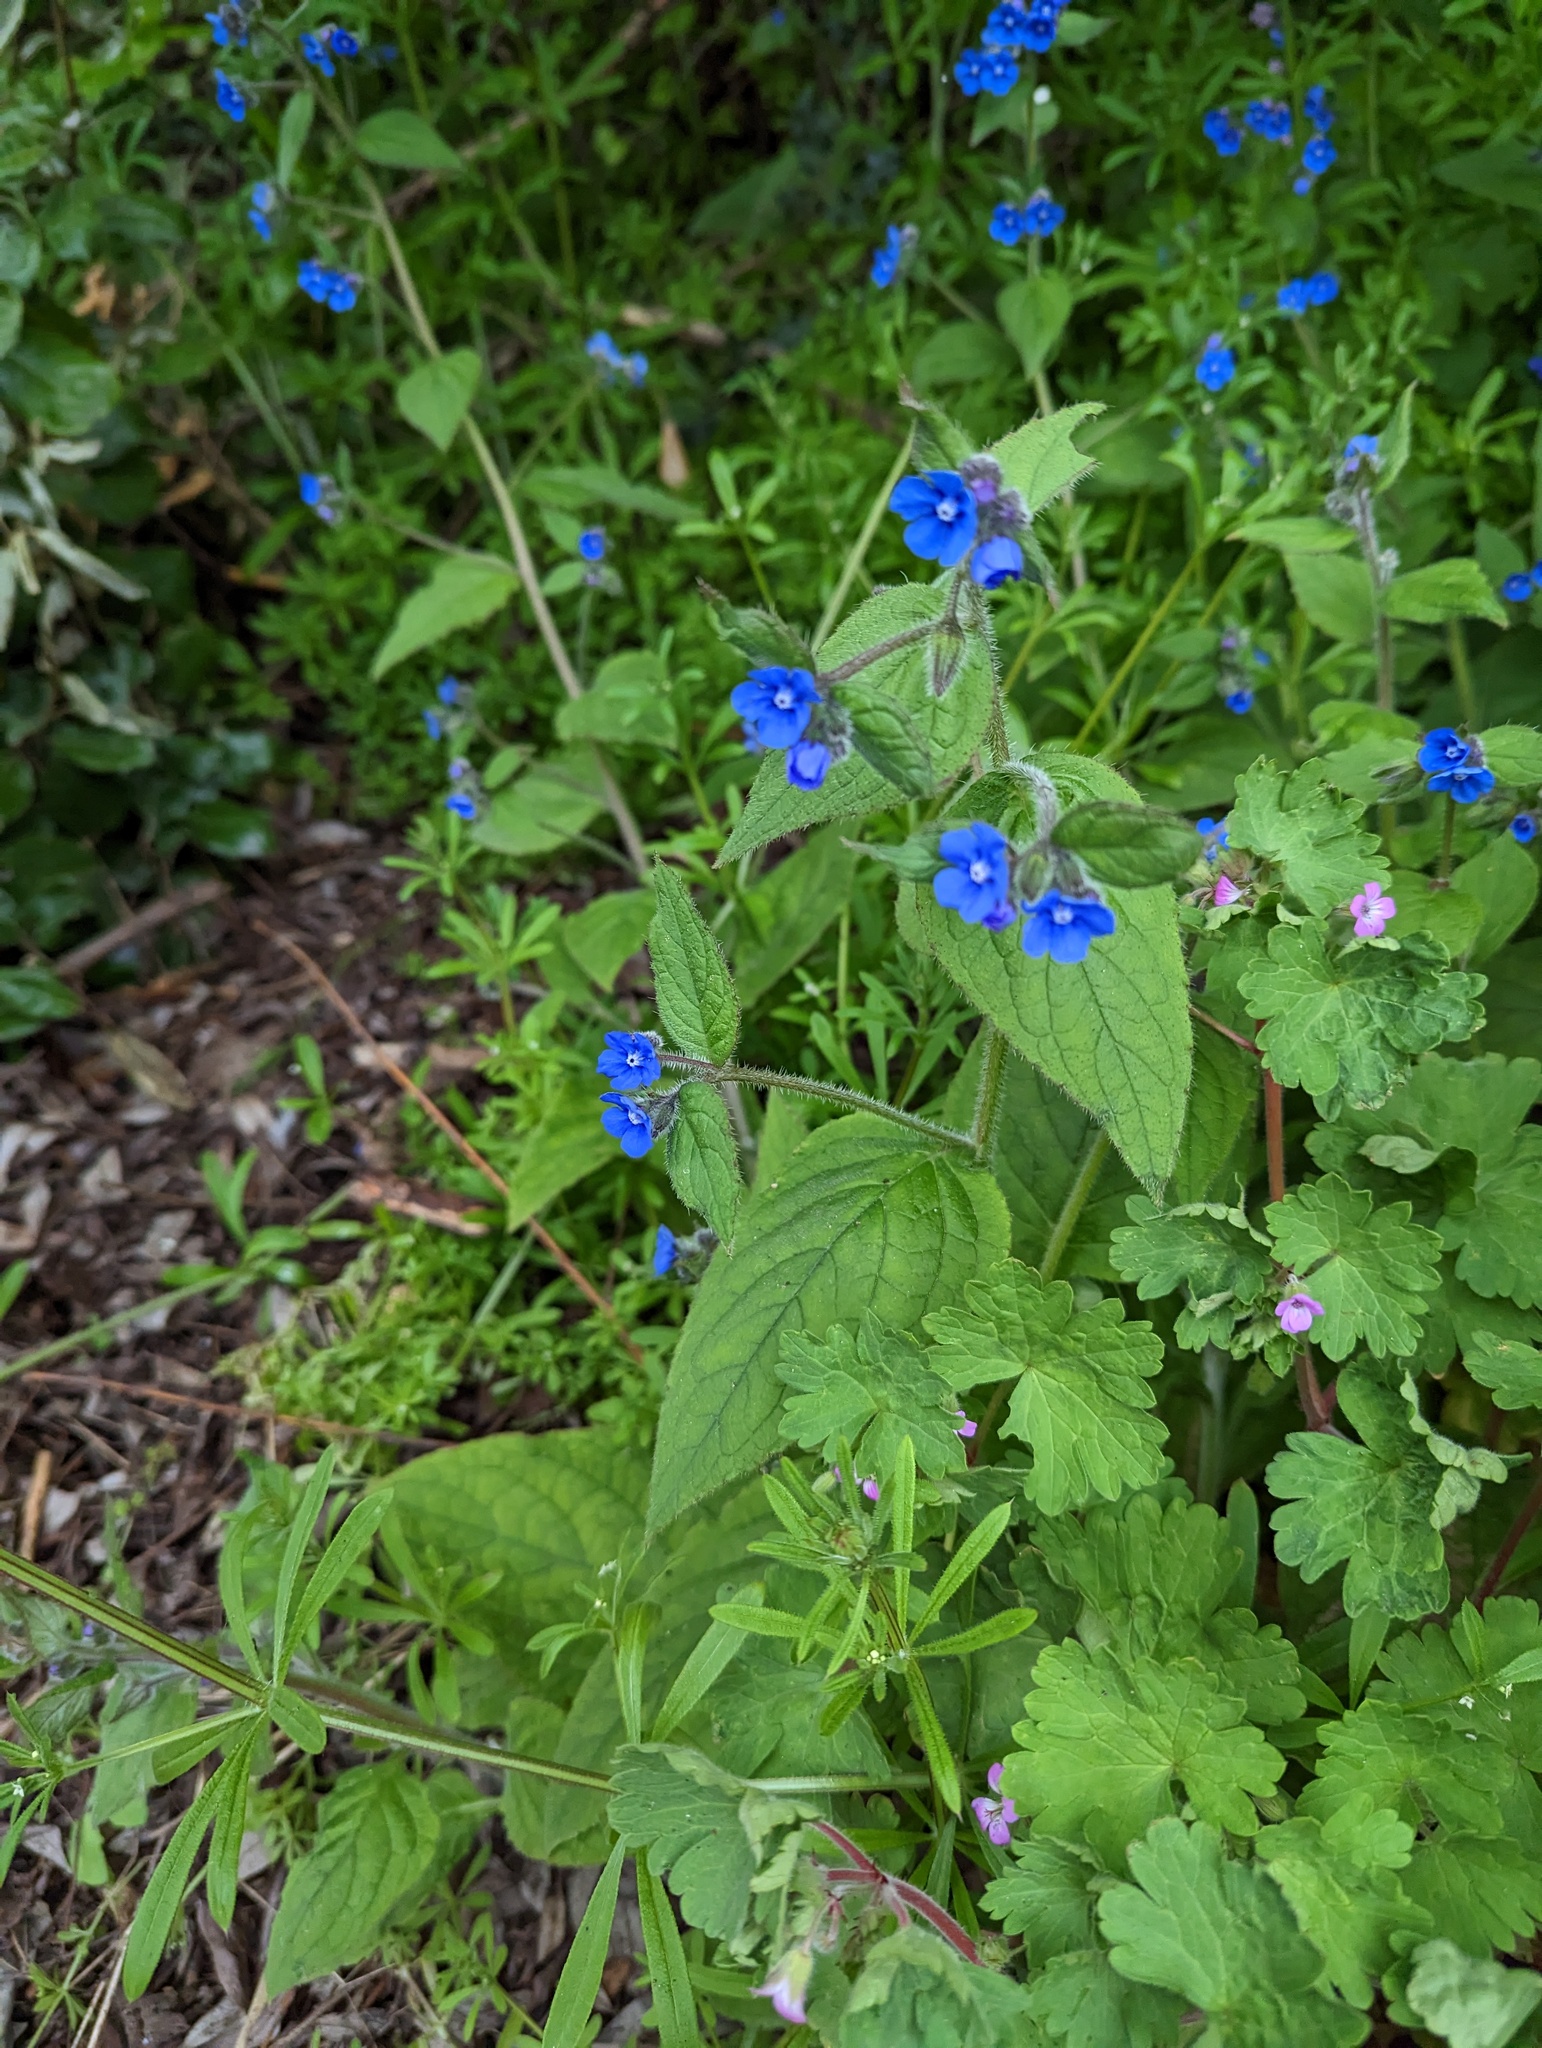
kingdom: Plantae
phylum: Tracheophyta
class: Magnoliopsida
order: Boraginales
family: Boraginaceae
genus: Pentaglottis
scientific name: Pentaglottis sempervirens
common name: Green alkanet
